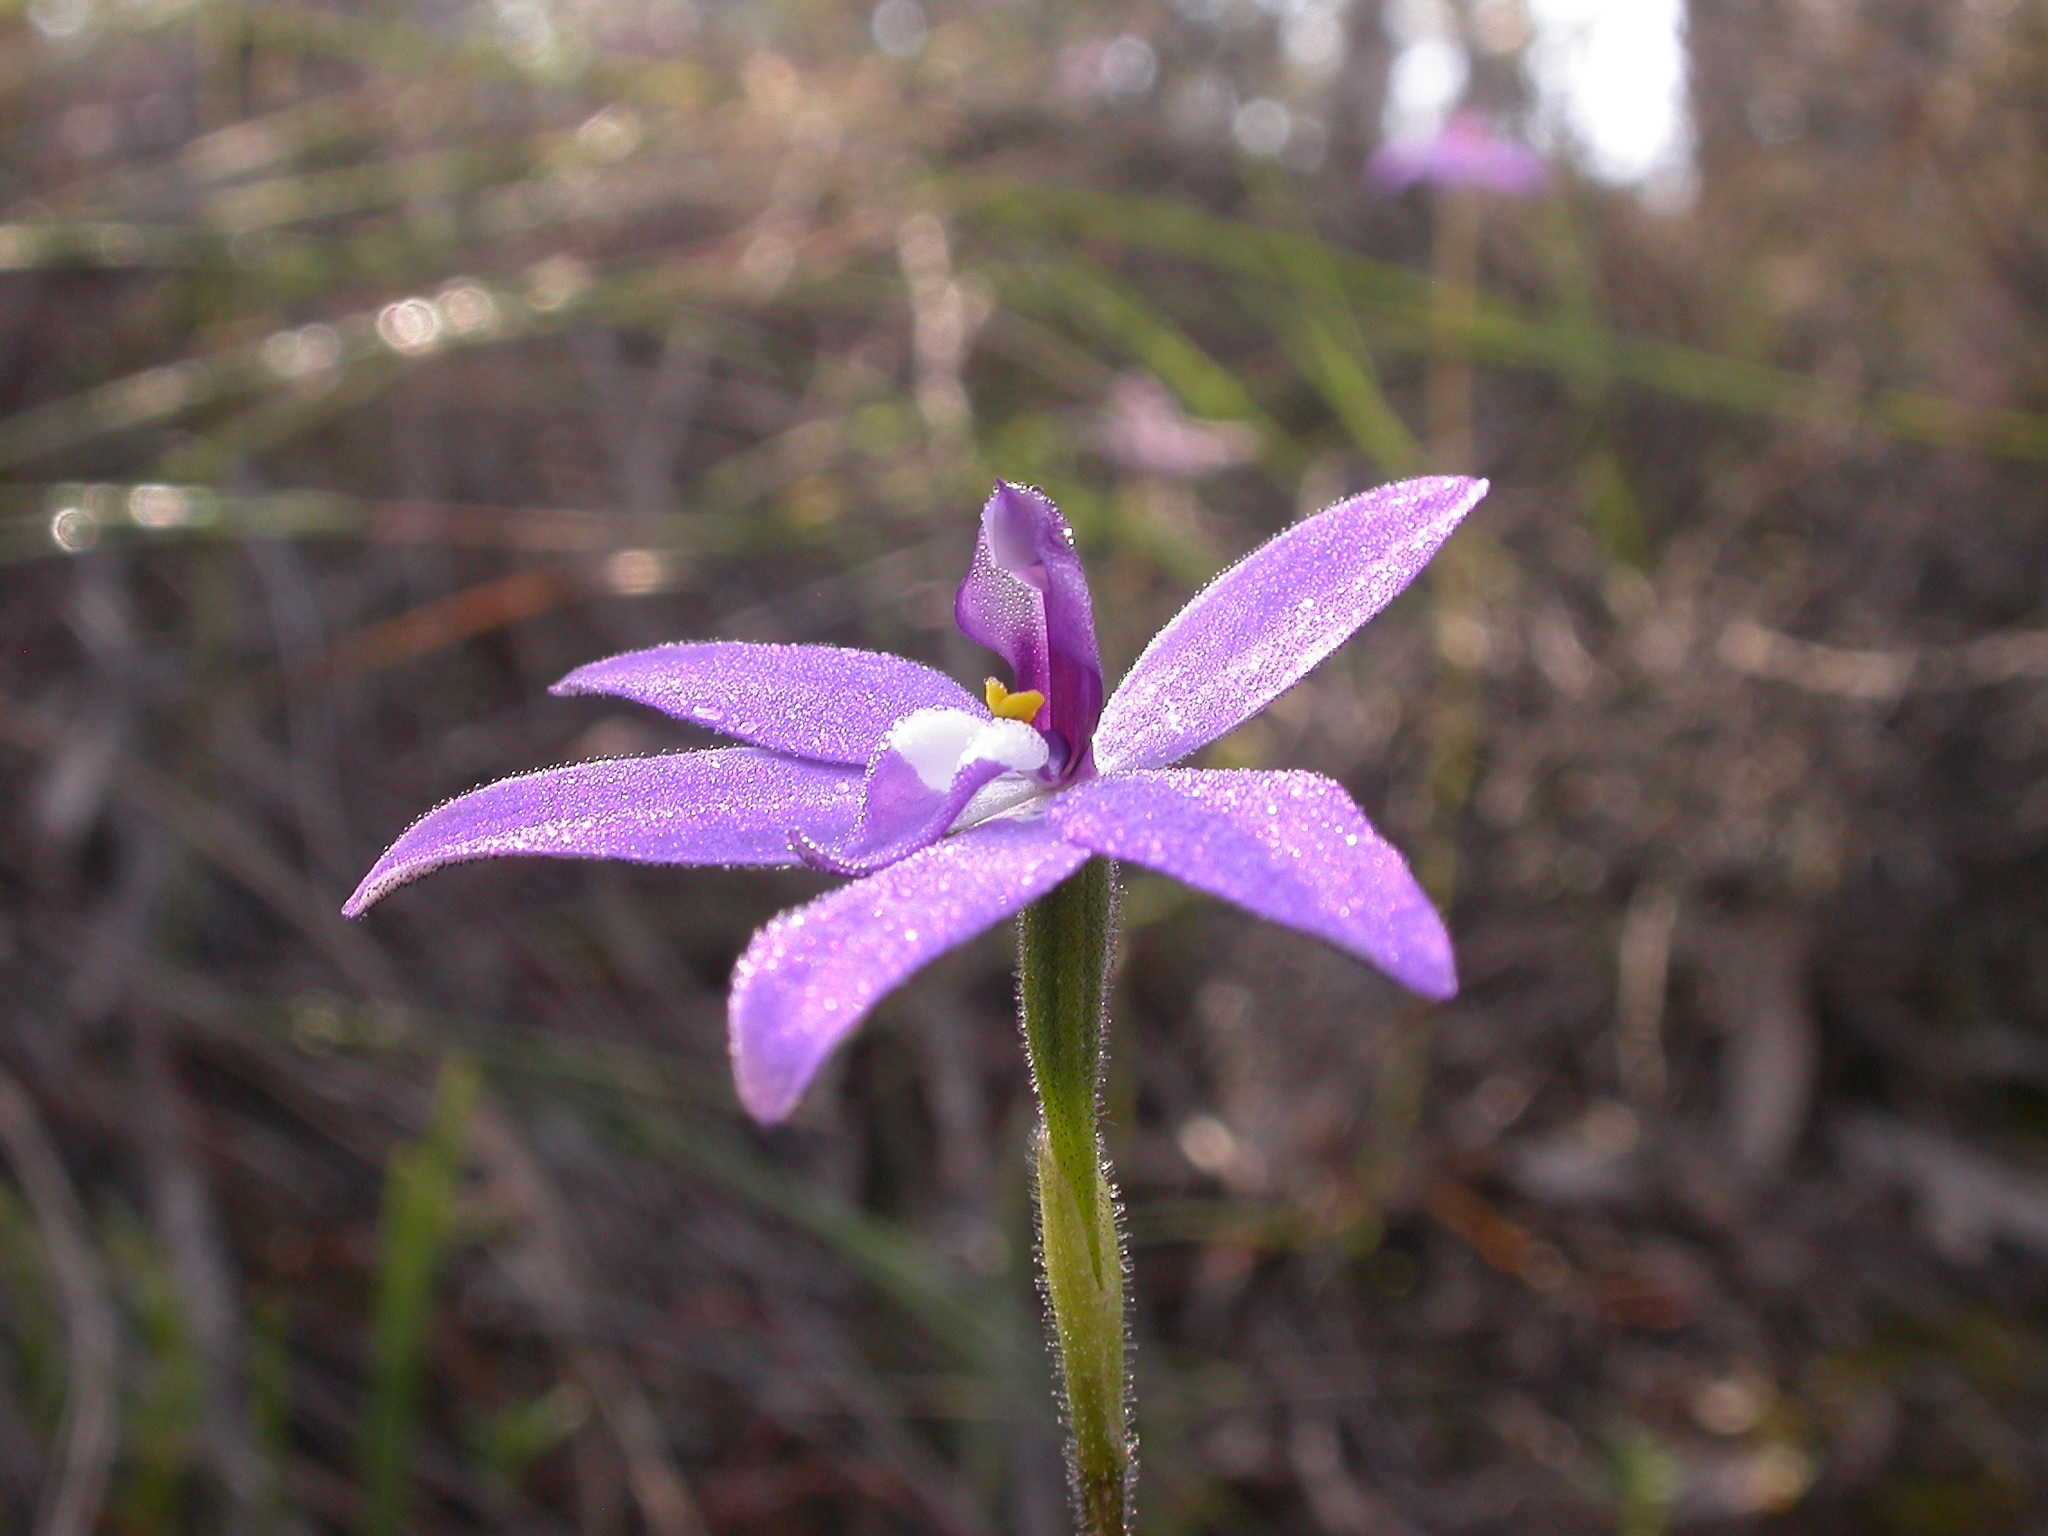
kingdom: Plantae
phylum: Tracheophyta
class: Liliopsida
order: Asparagales
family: Orchidaceae
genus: Caladenia
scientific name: Caladenia major
